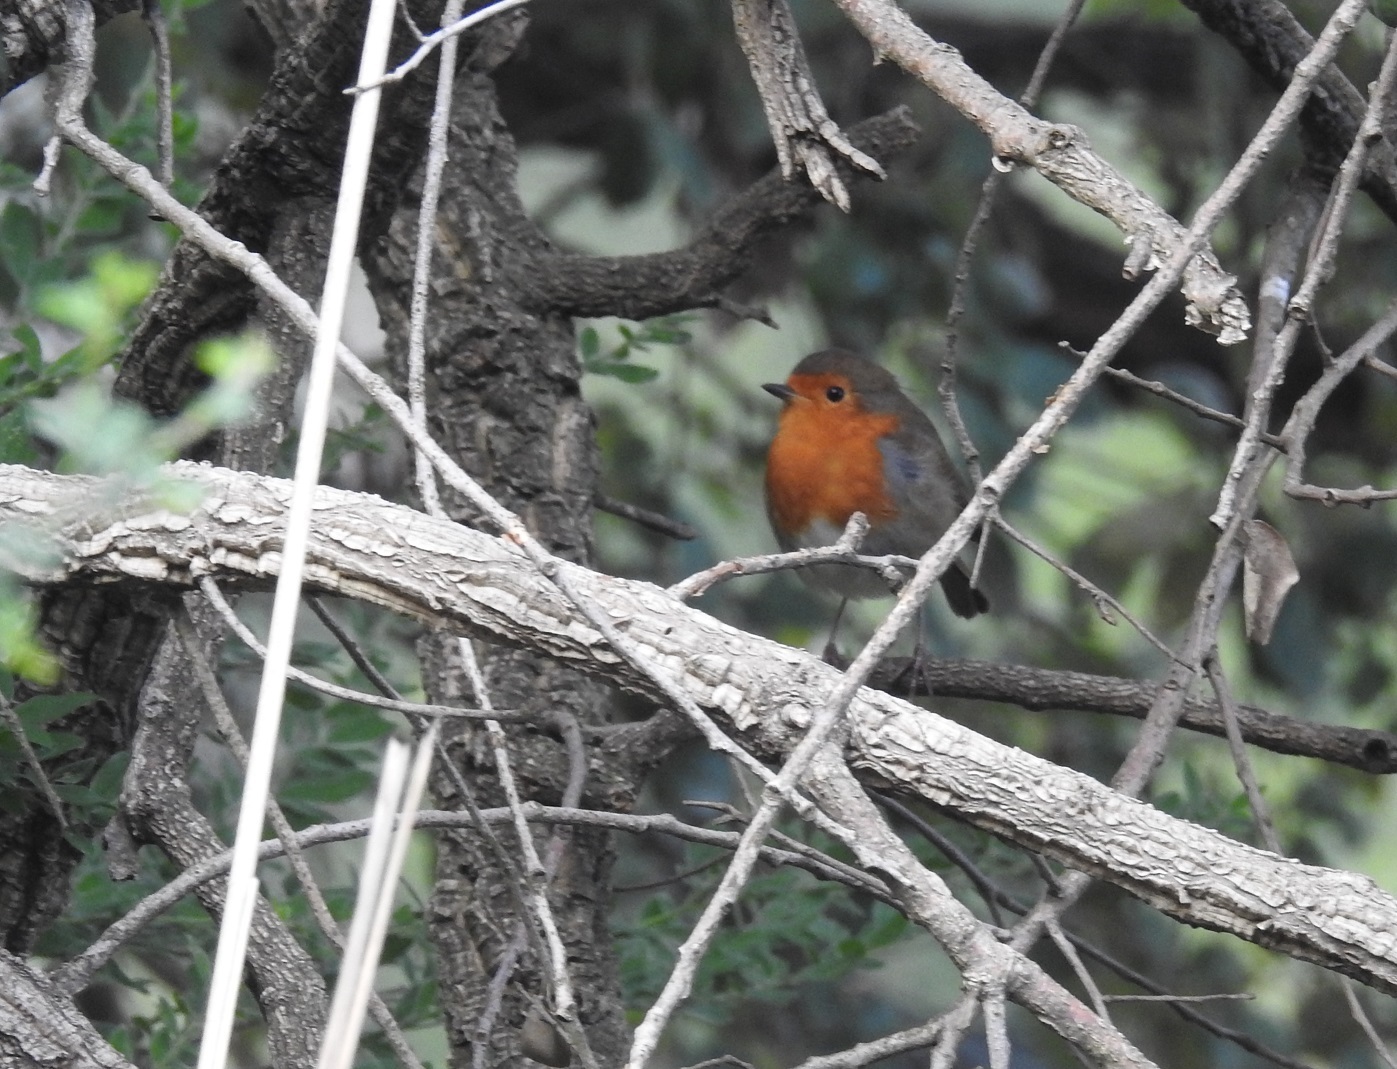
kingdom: Animalia
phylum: Chordata
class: Aves
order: Passeriformes
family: Muscicapidae
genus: Erithacus
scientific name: Erithacus rubecula
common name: European robin
